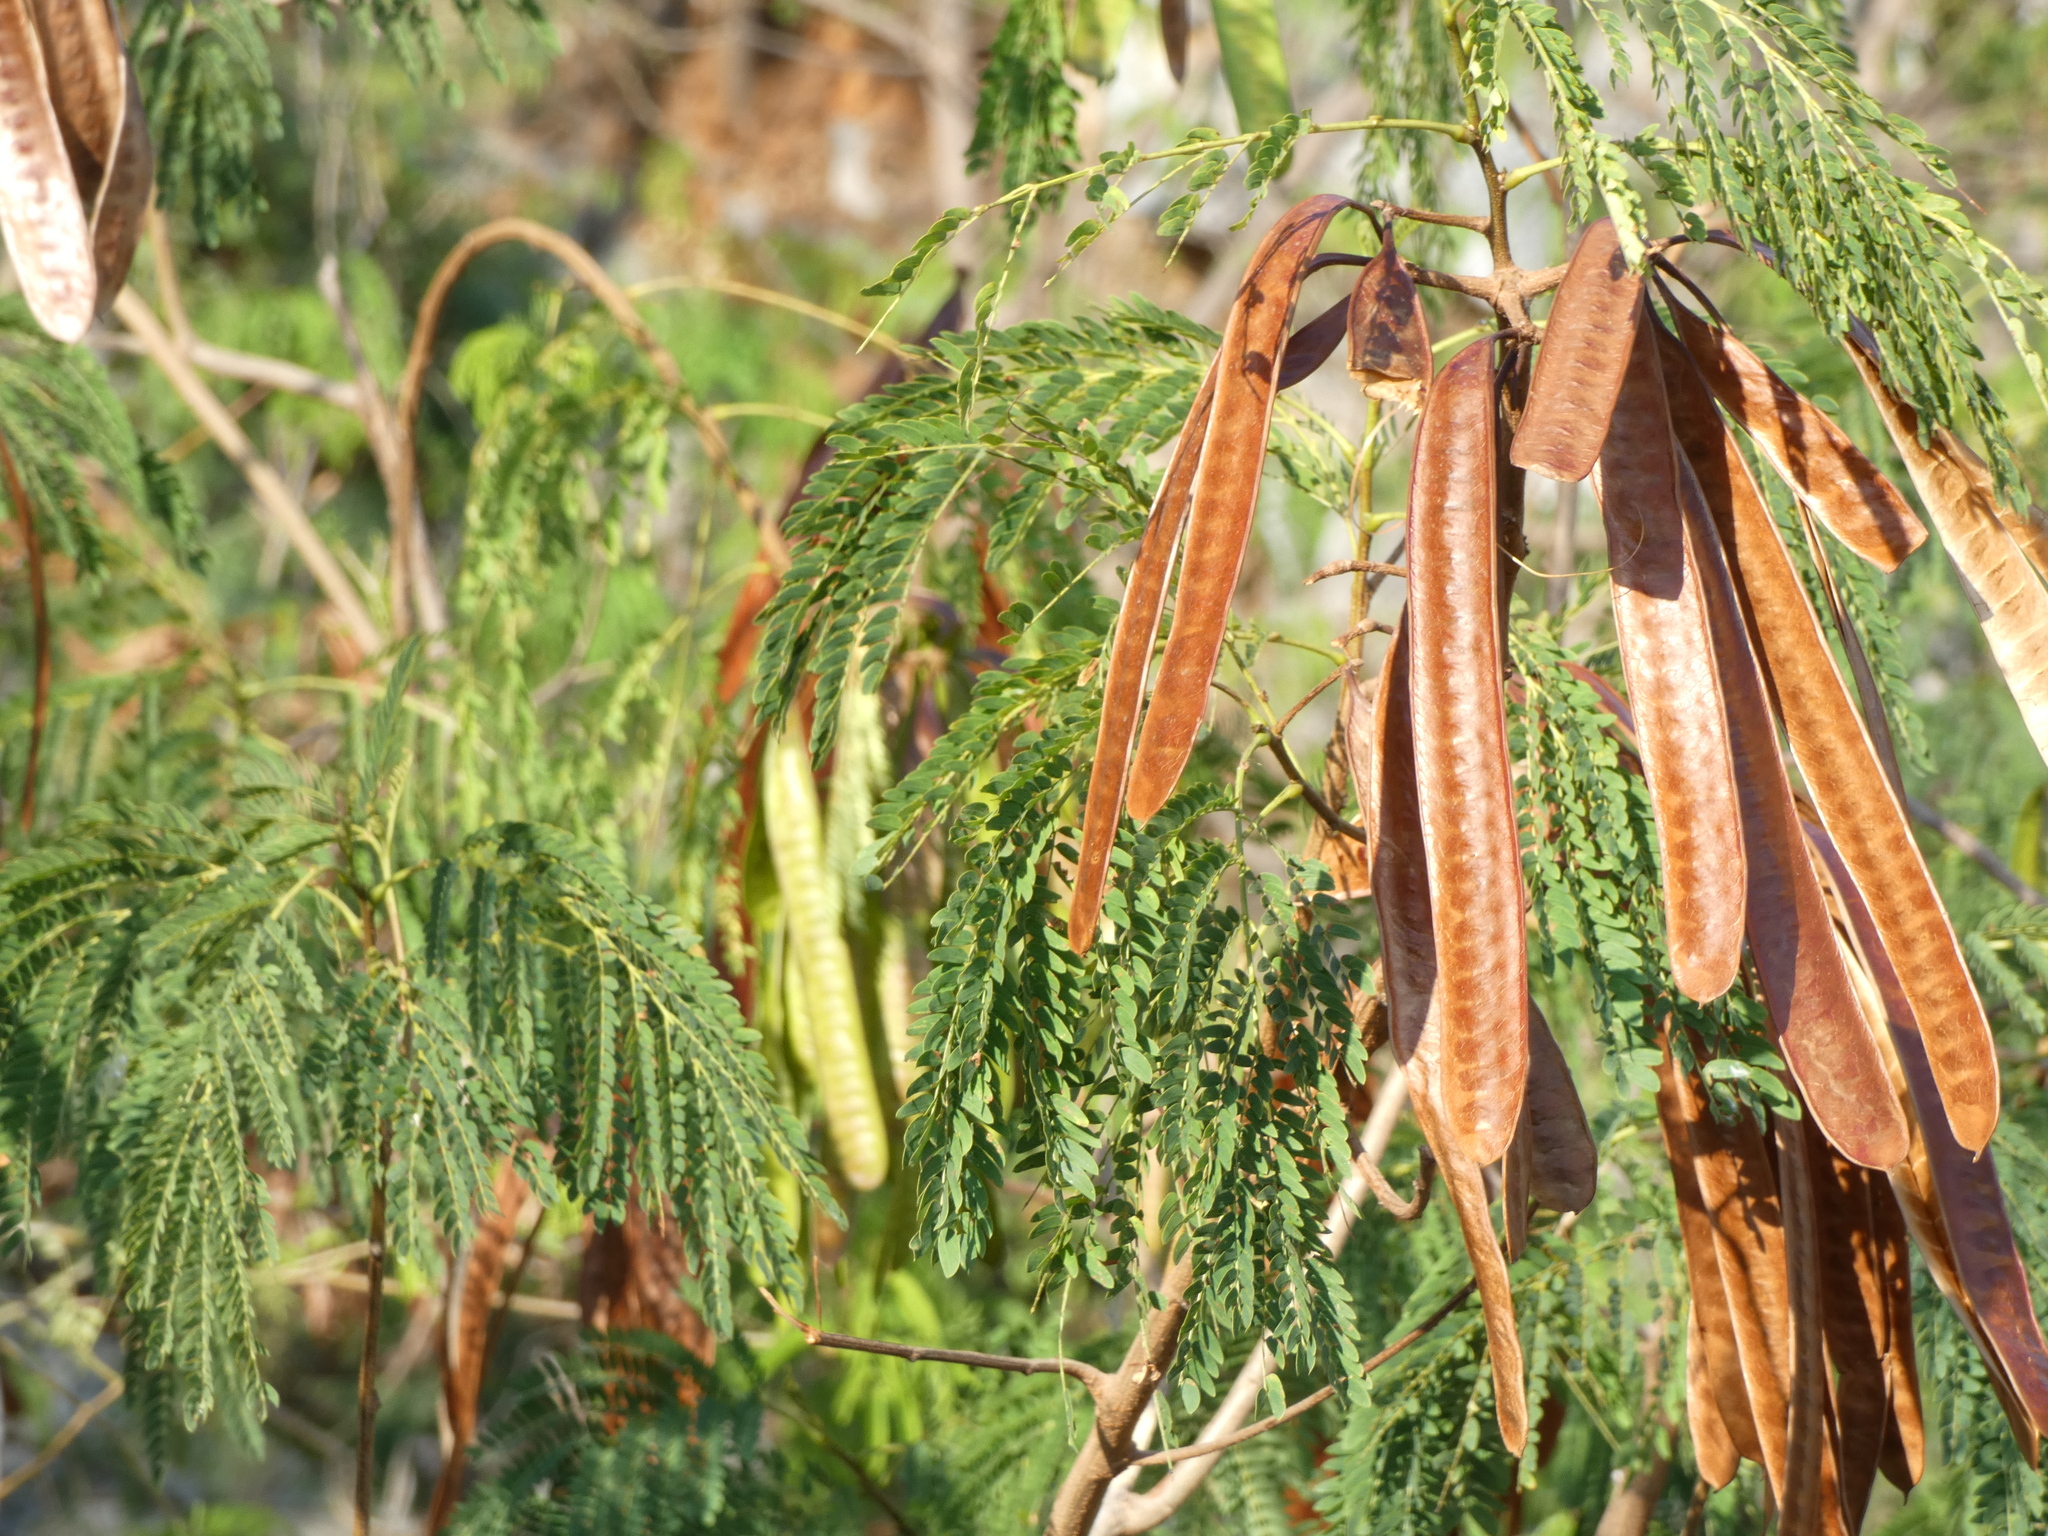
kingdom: Plantae
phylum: Tracheophyta
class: Magnoliopsida
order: Fabales
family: Fabaceae
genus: Leucaena
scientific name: Leucaena leucocephala
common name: White leadtree
